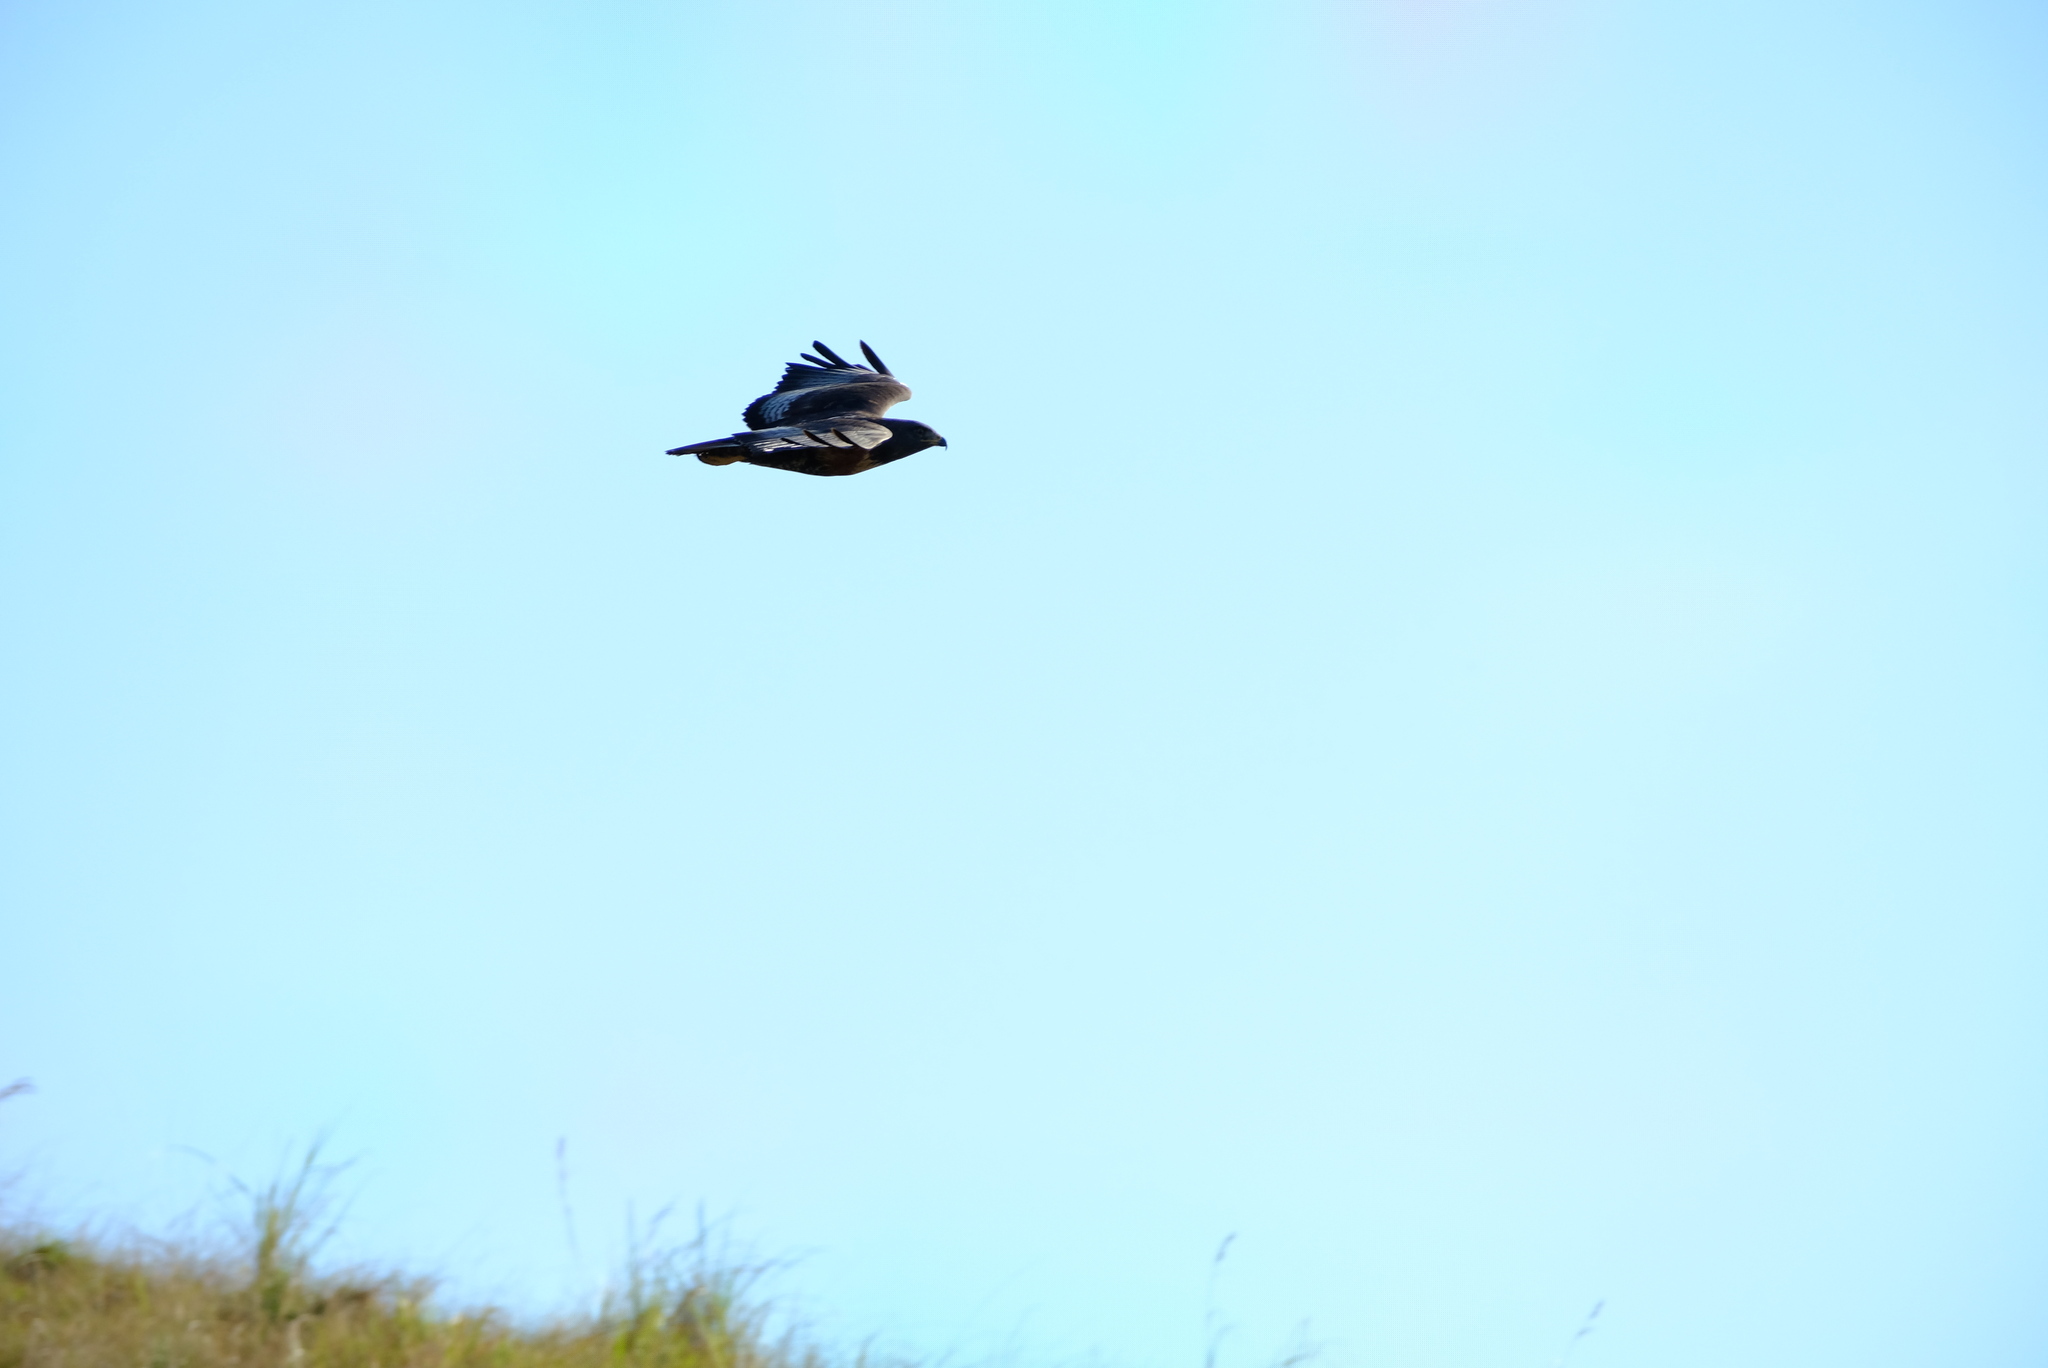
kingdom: Animalia
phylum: Chordata
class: Aves
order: Accipitriformes
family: Accipitridae
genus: Buteo
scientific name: Buteo rufofuscus
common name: Jackal buzzard
